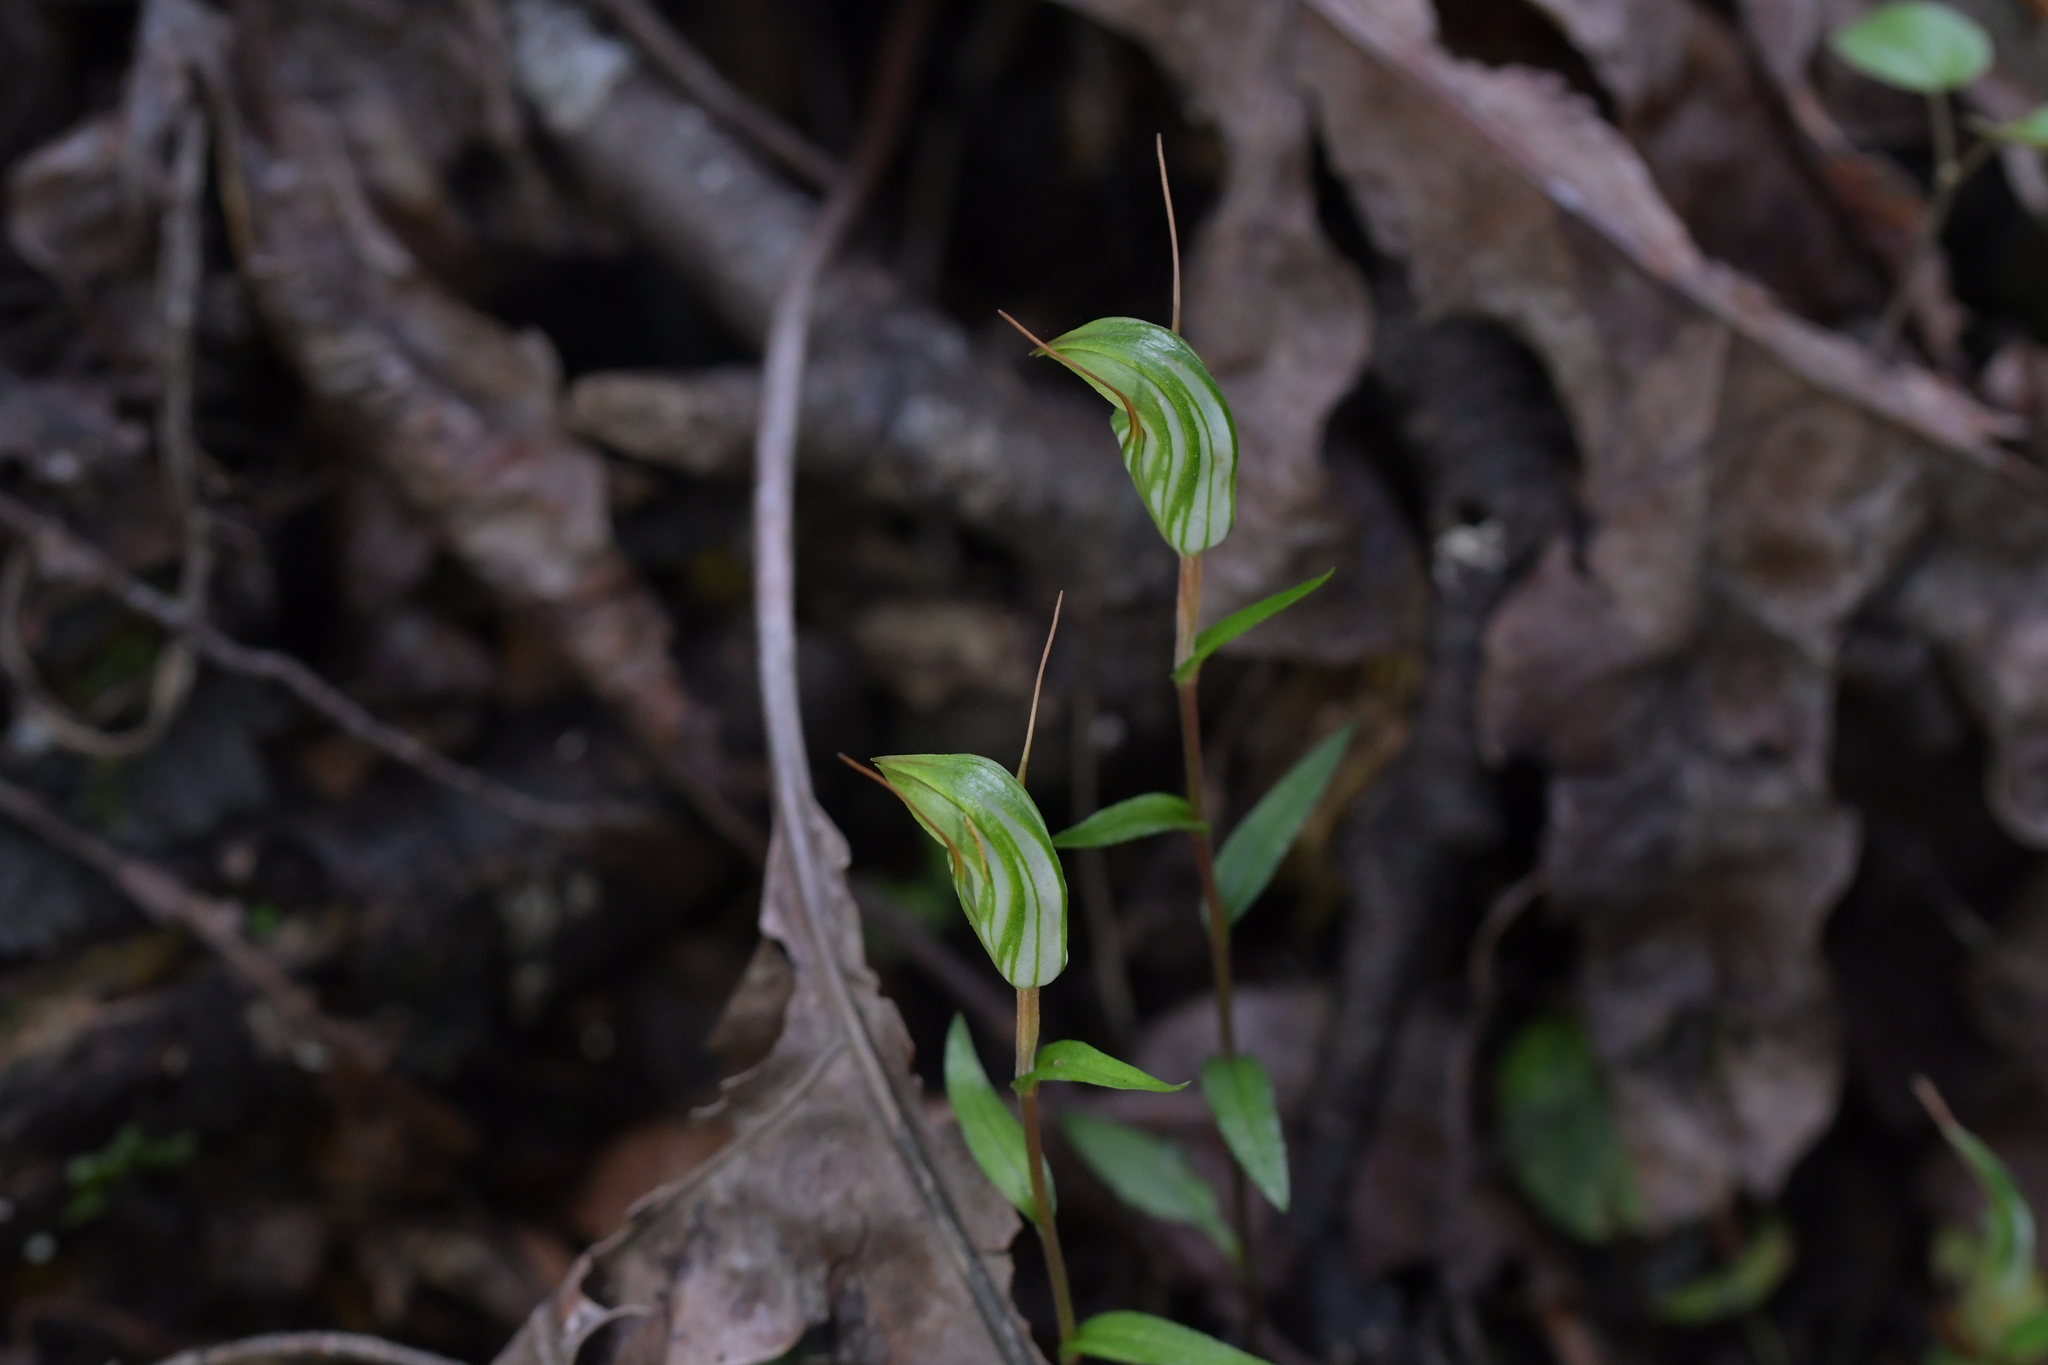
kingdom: Plantae
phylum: Tracheophyta
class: Liliopsida
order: Asparagales
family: Orchidaceae
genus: Pterostylis
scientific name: Pterostylis alobula
